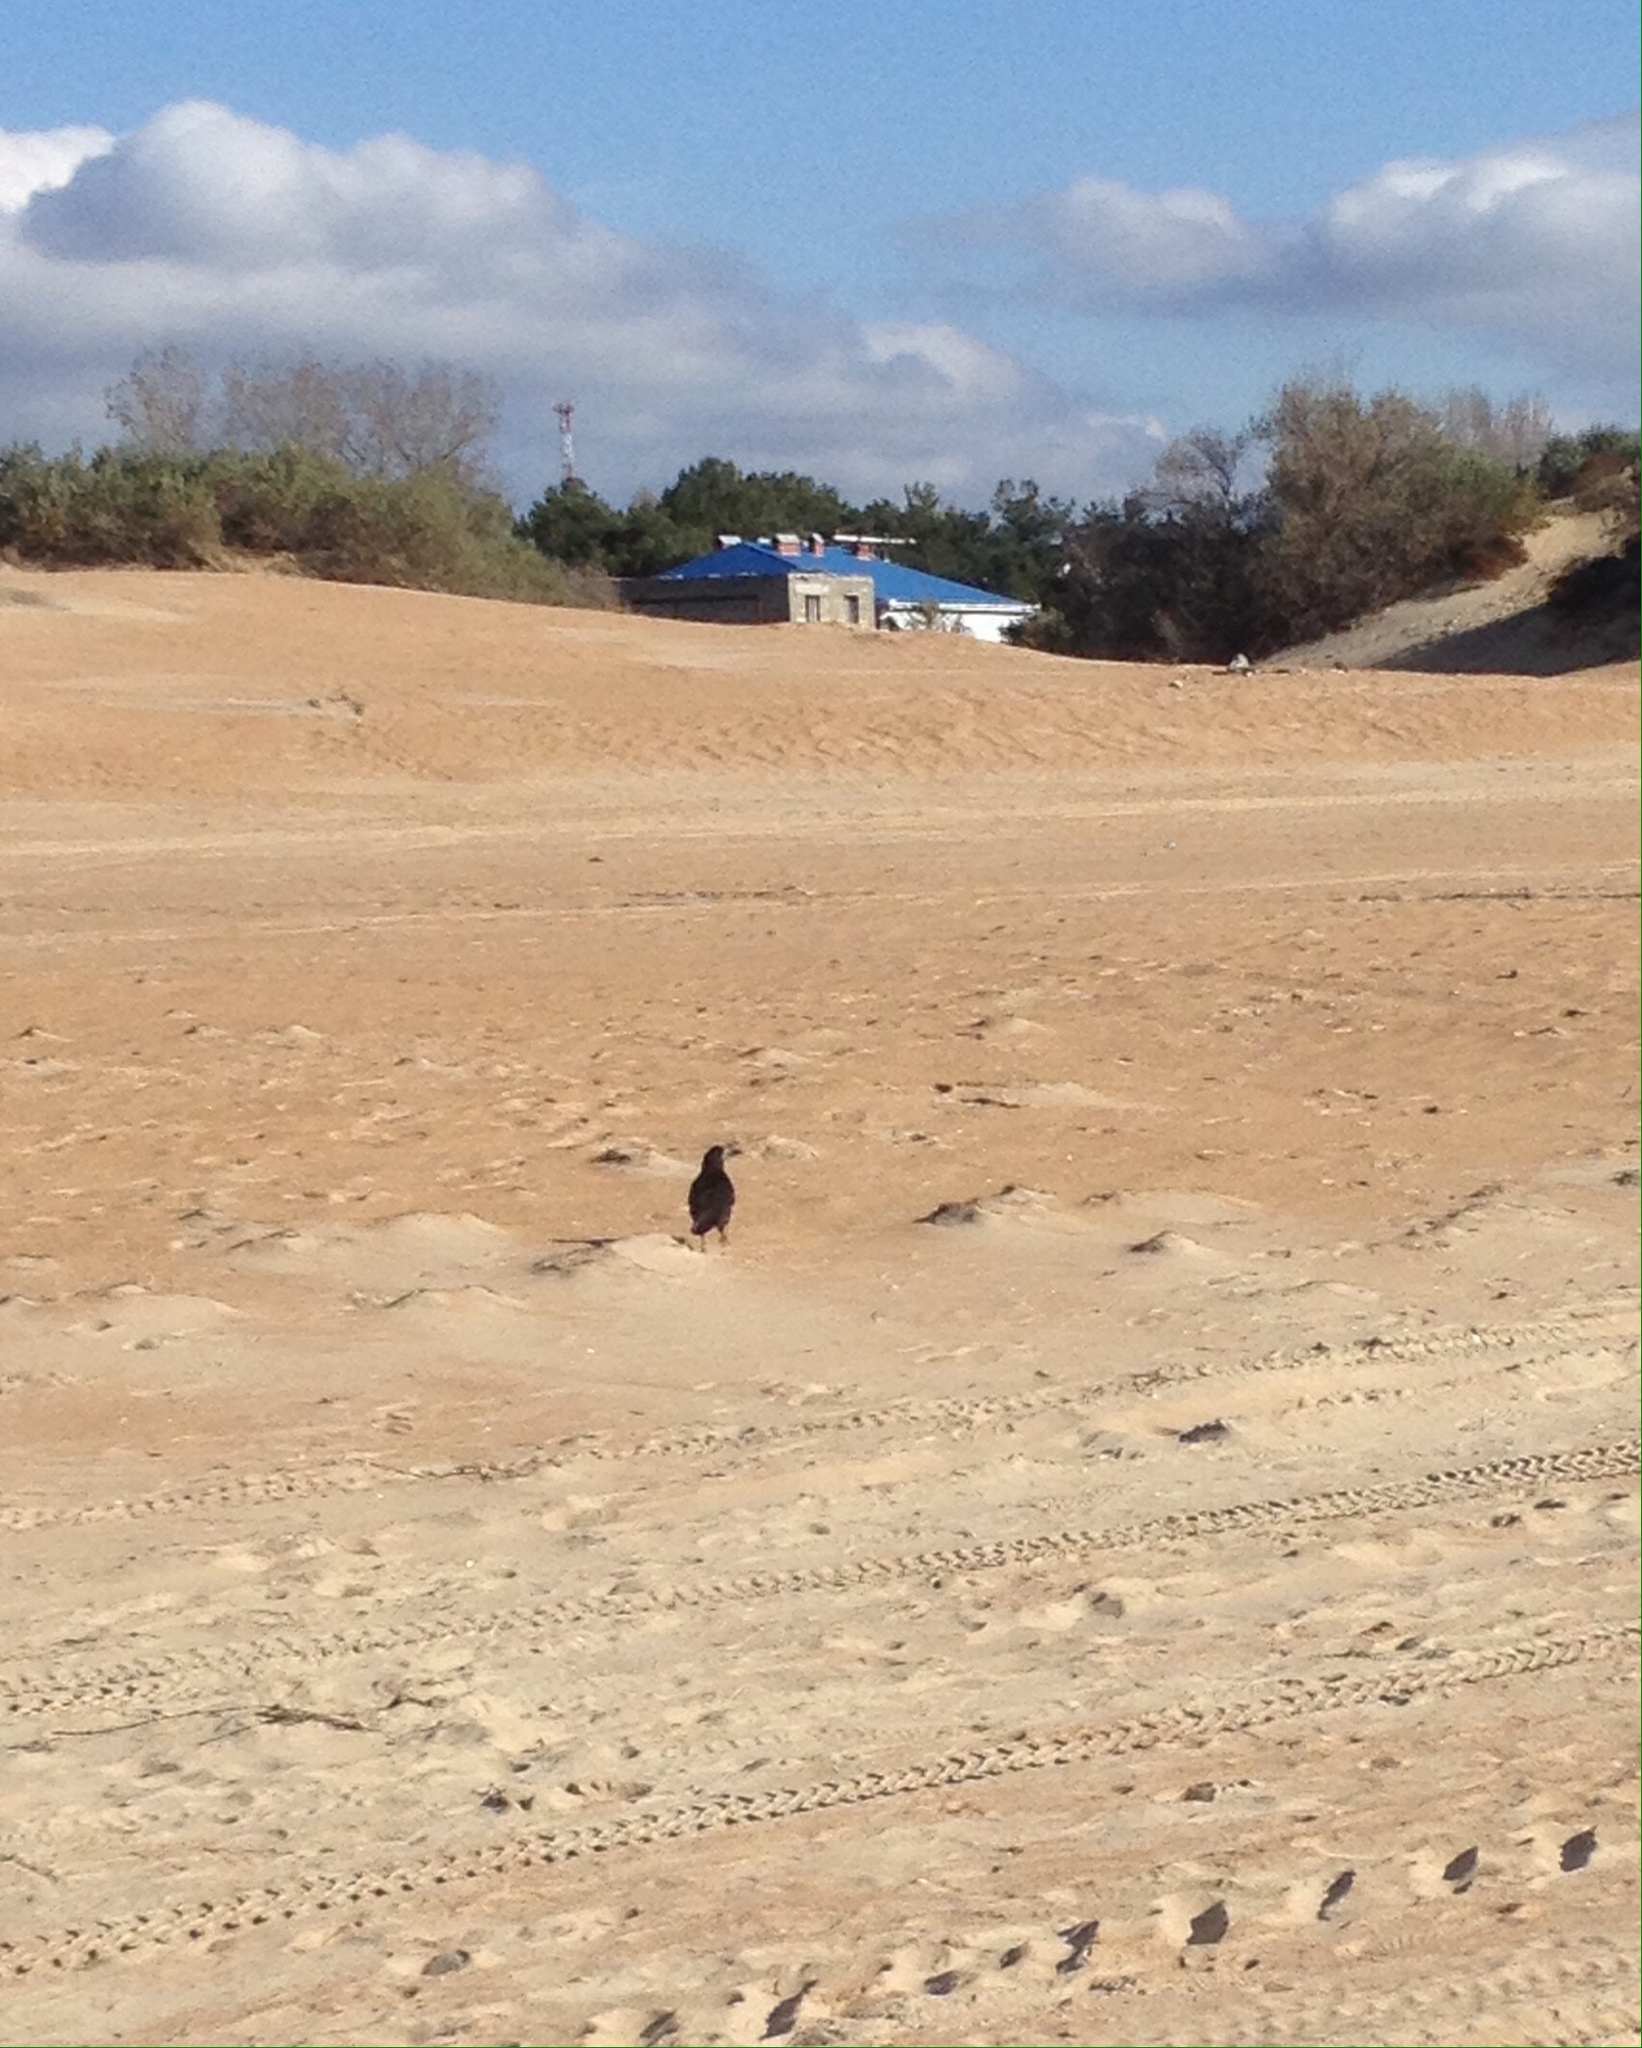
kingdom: Animalia
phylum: Chordata
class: Aves
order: Passeriformes
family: Corvidae
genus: Corvus
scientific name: Corvus frugilegus
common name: Rook
